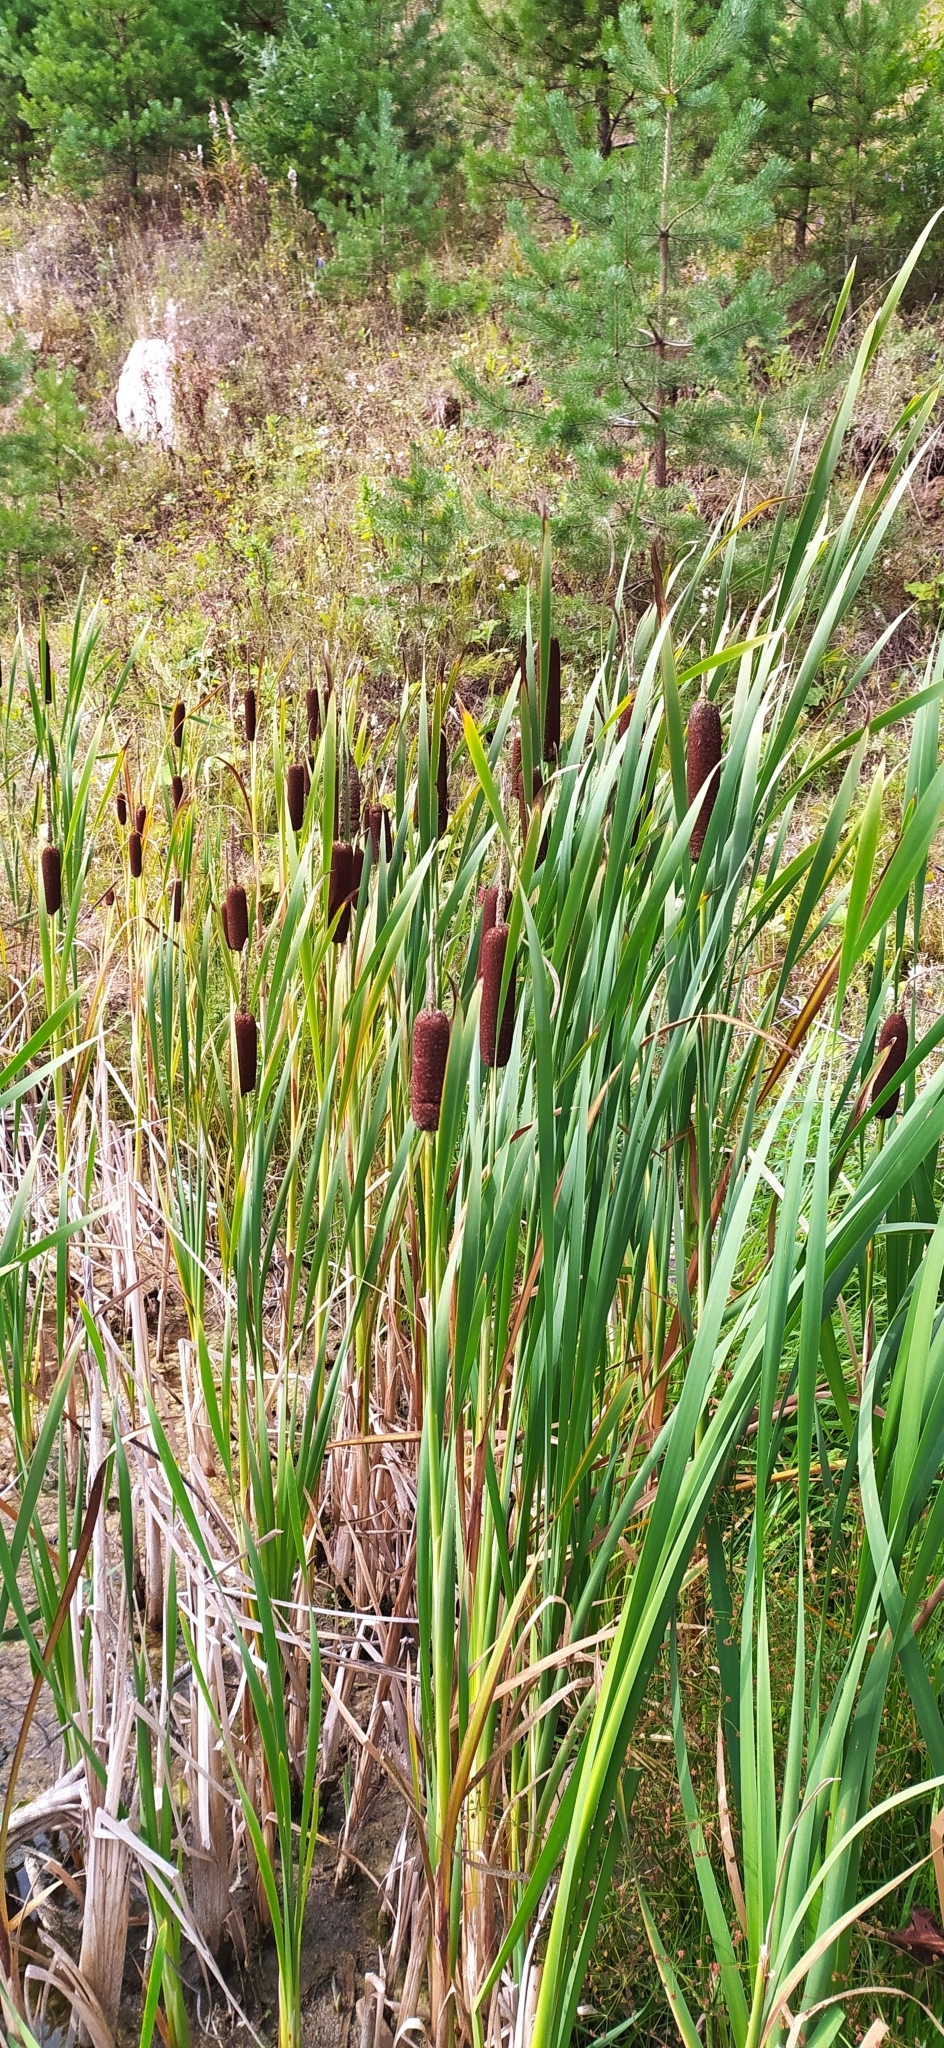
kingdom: Plantae
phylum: Tracheophyta
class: Liliopsida
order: Poales
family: Typhaceae
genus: Typha
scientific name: Typha latifolia
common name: Broadleaf cattail
